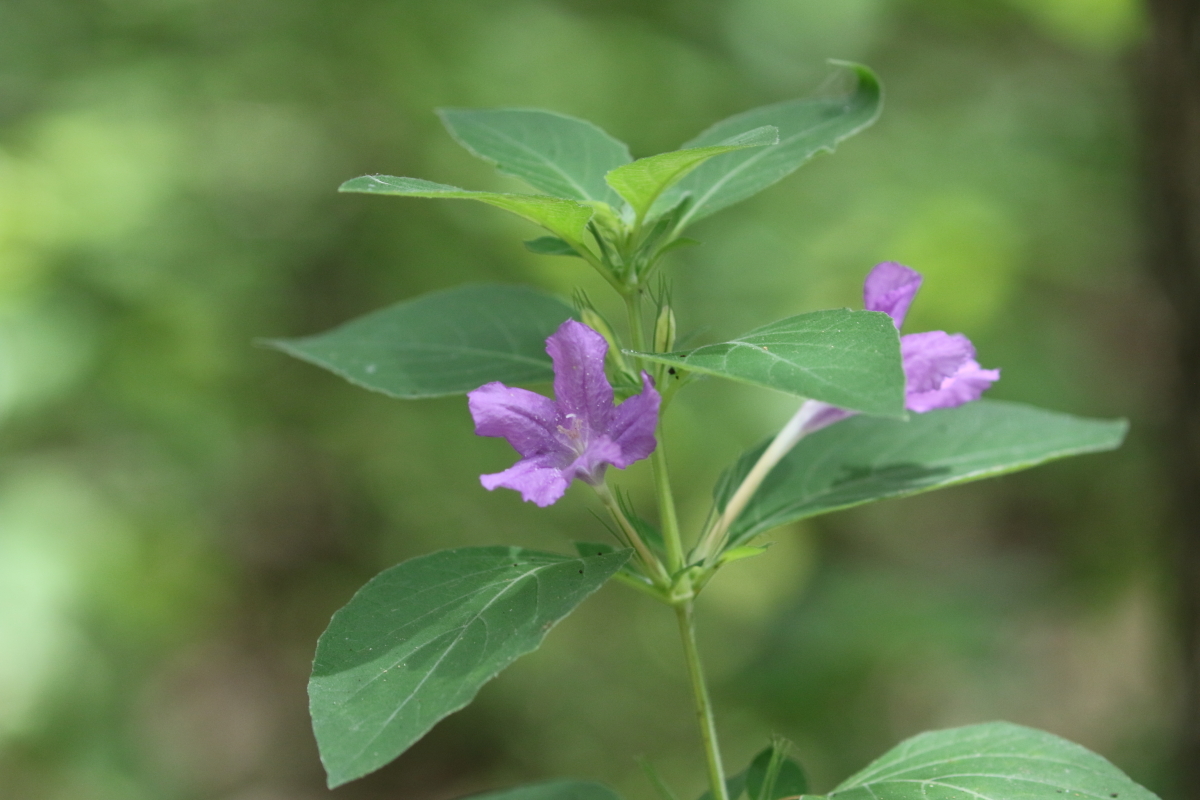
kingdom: Plantae
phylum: Tracheophyta
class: Magnoliopsida
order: Lamiales
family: Acanthaceae
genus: Ruellia
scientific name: Ruellia drummondiana
